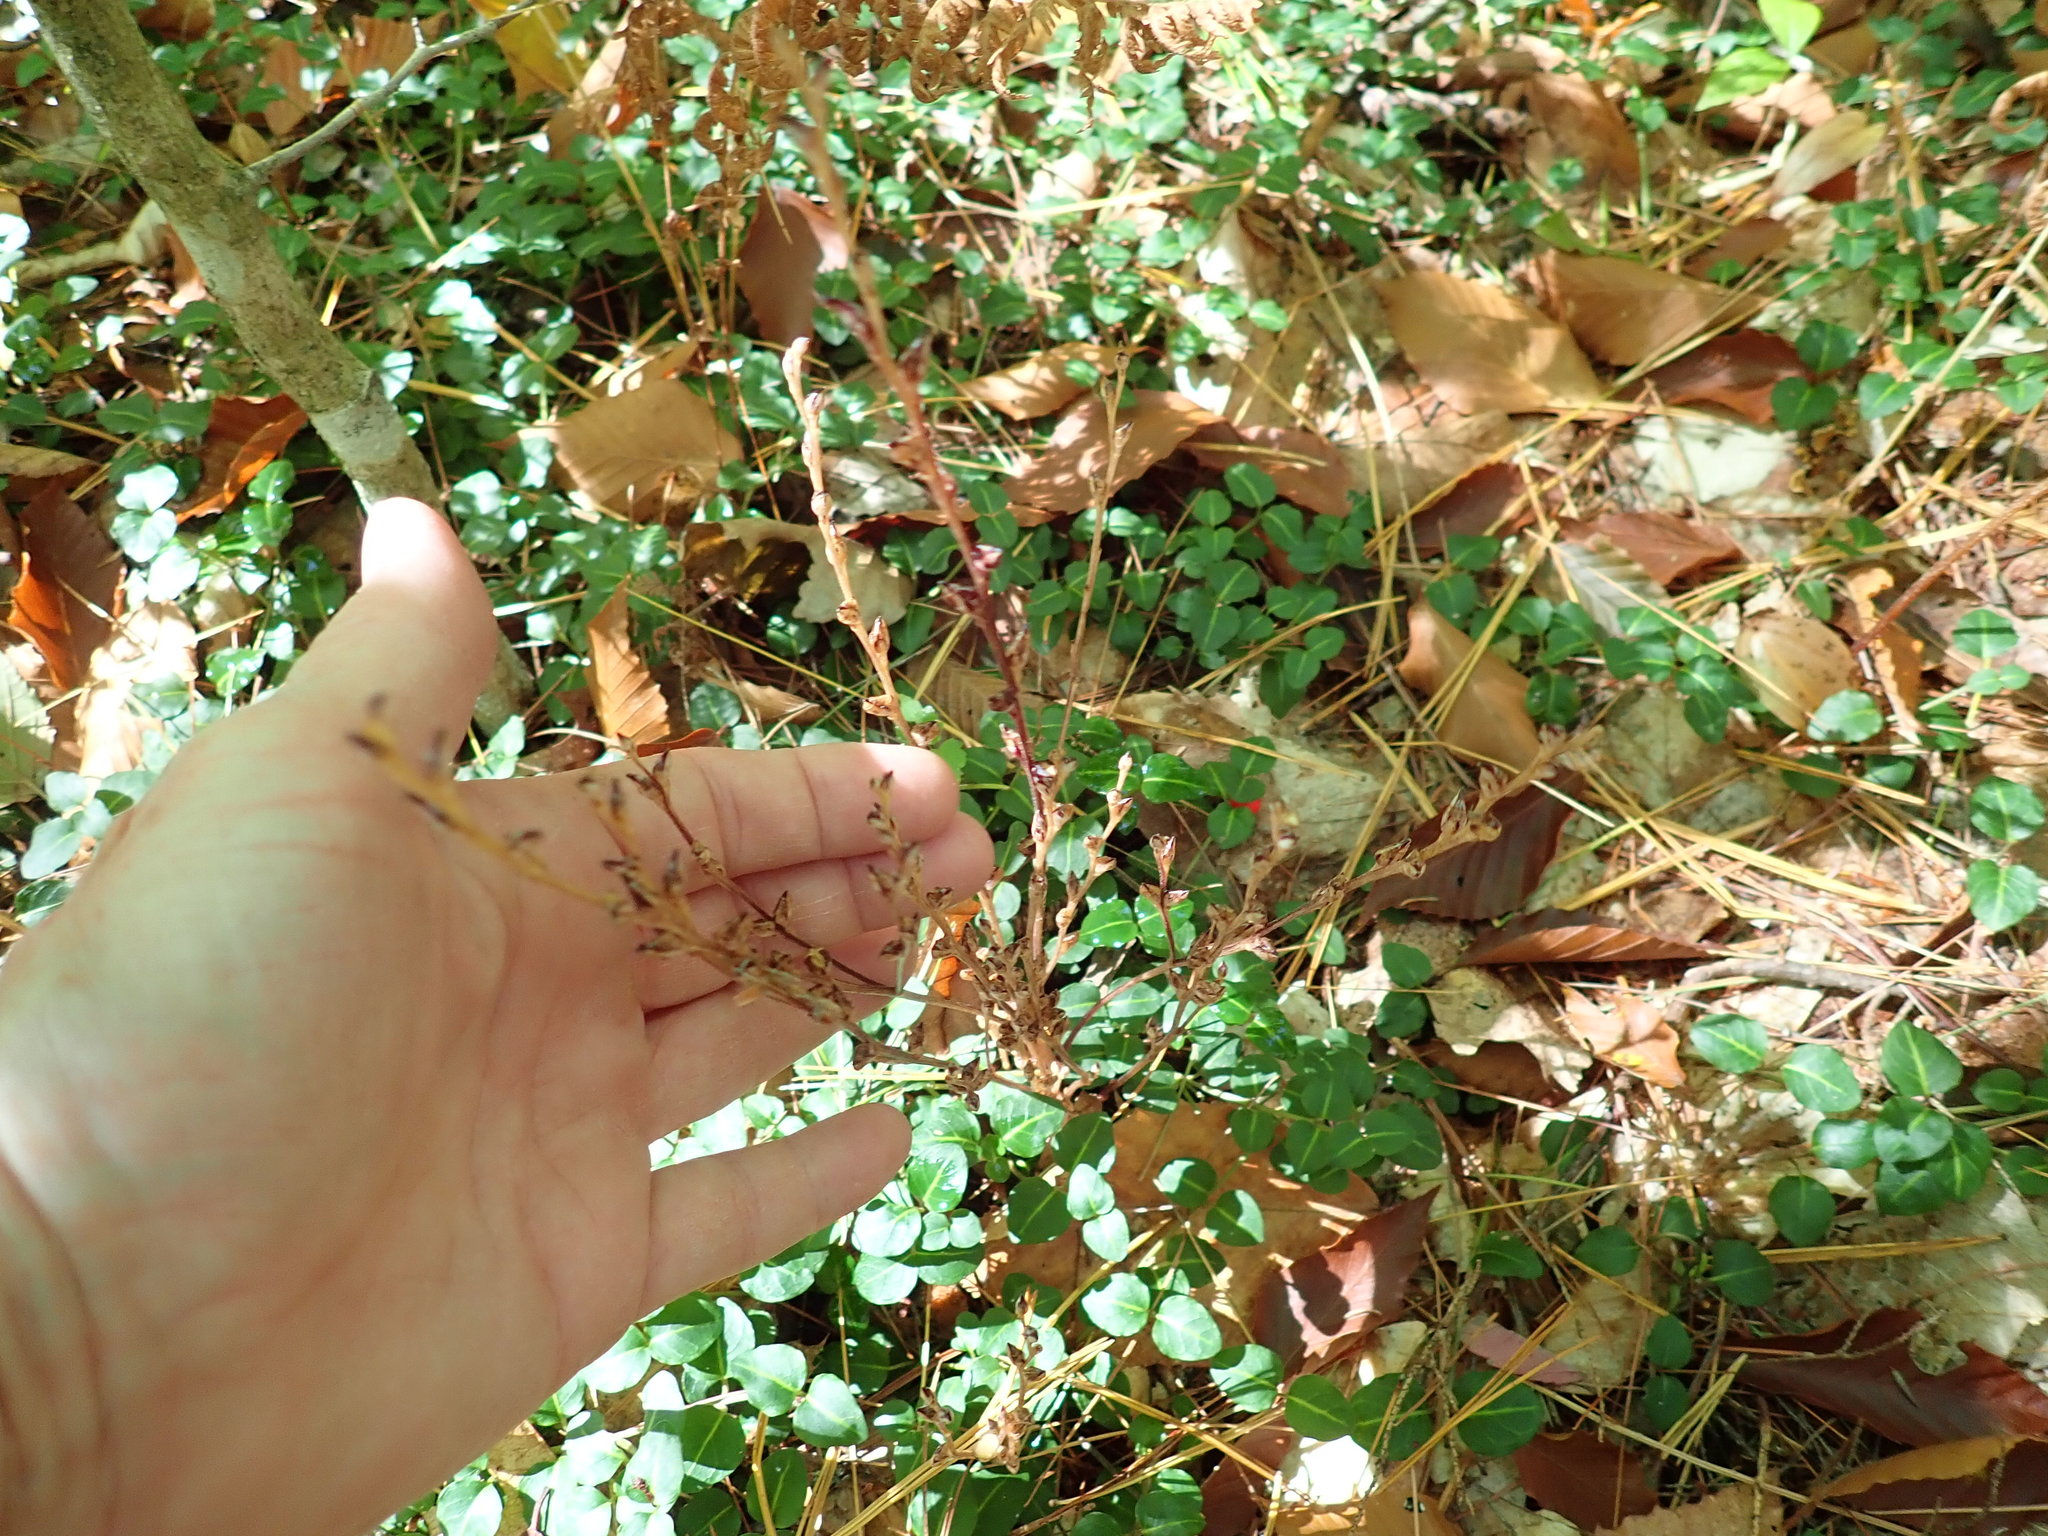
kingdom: Plantae
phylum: Tracheophyta
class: Magnoliopsida
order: Lamiales
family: Orobanchaceae
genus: Epifagus
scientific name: Epifagus virginiana
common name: Beechdrops
